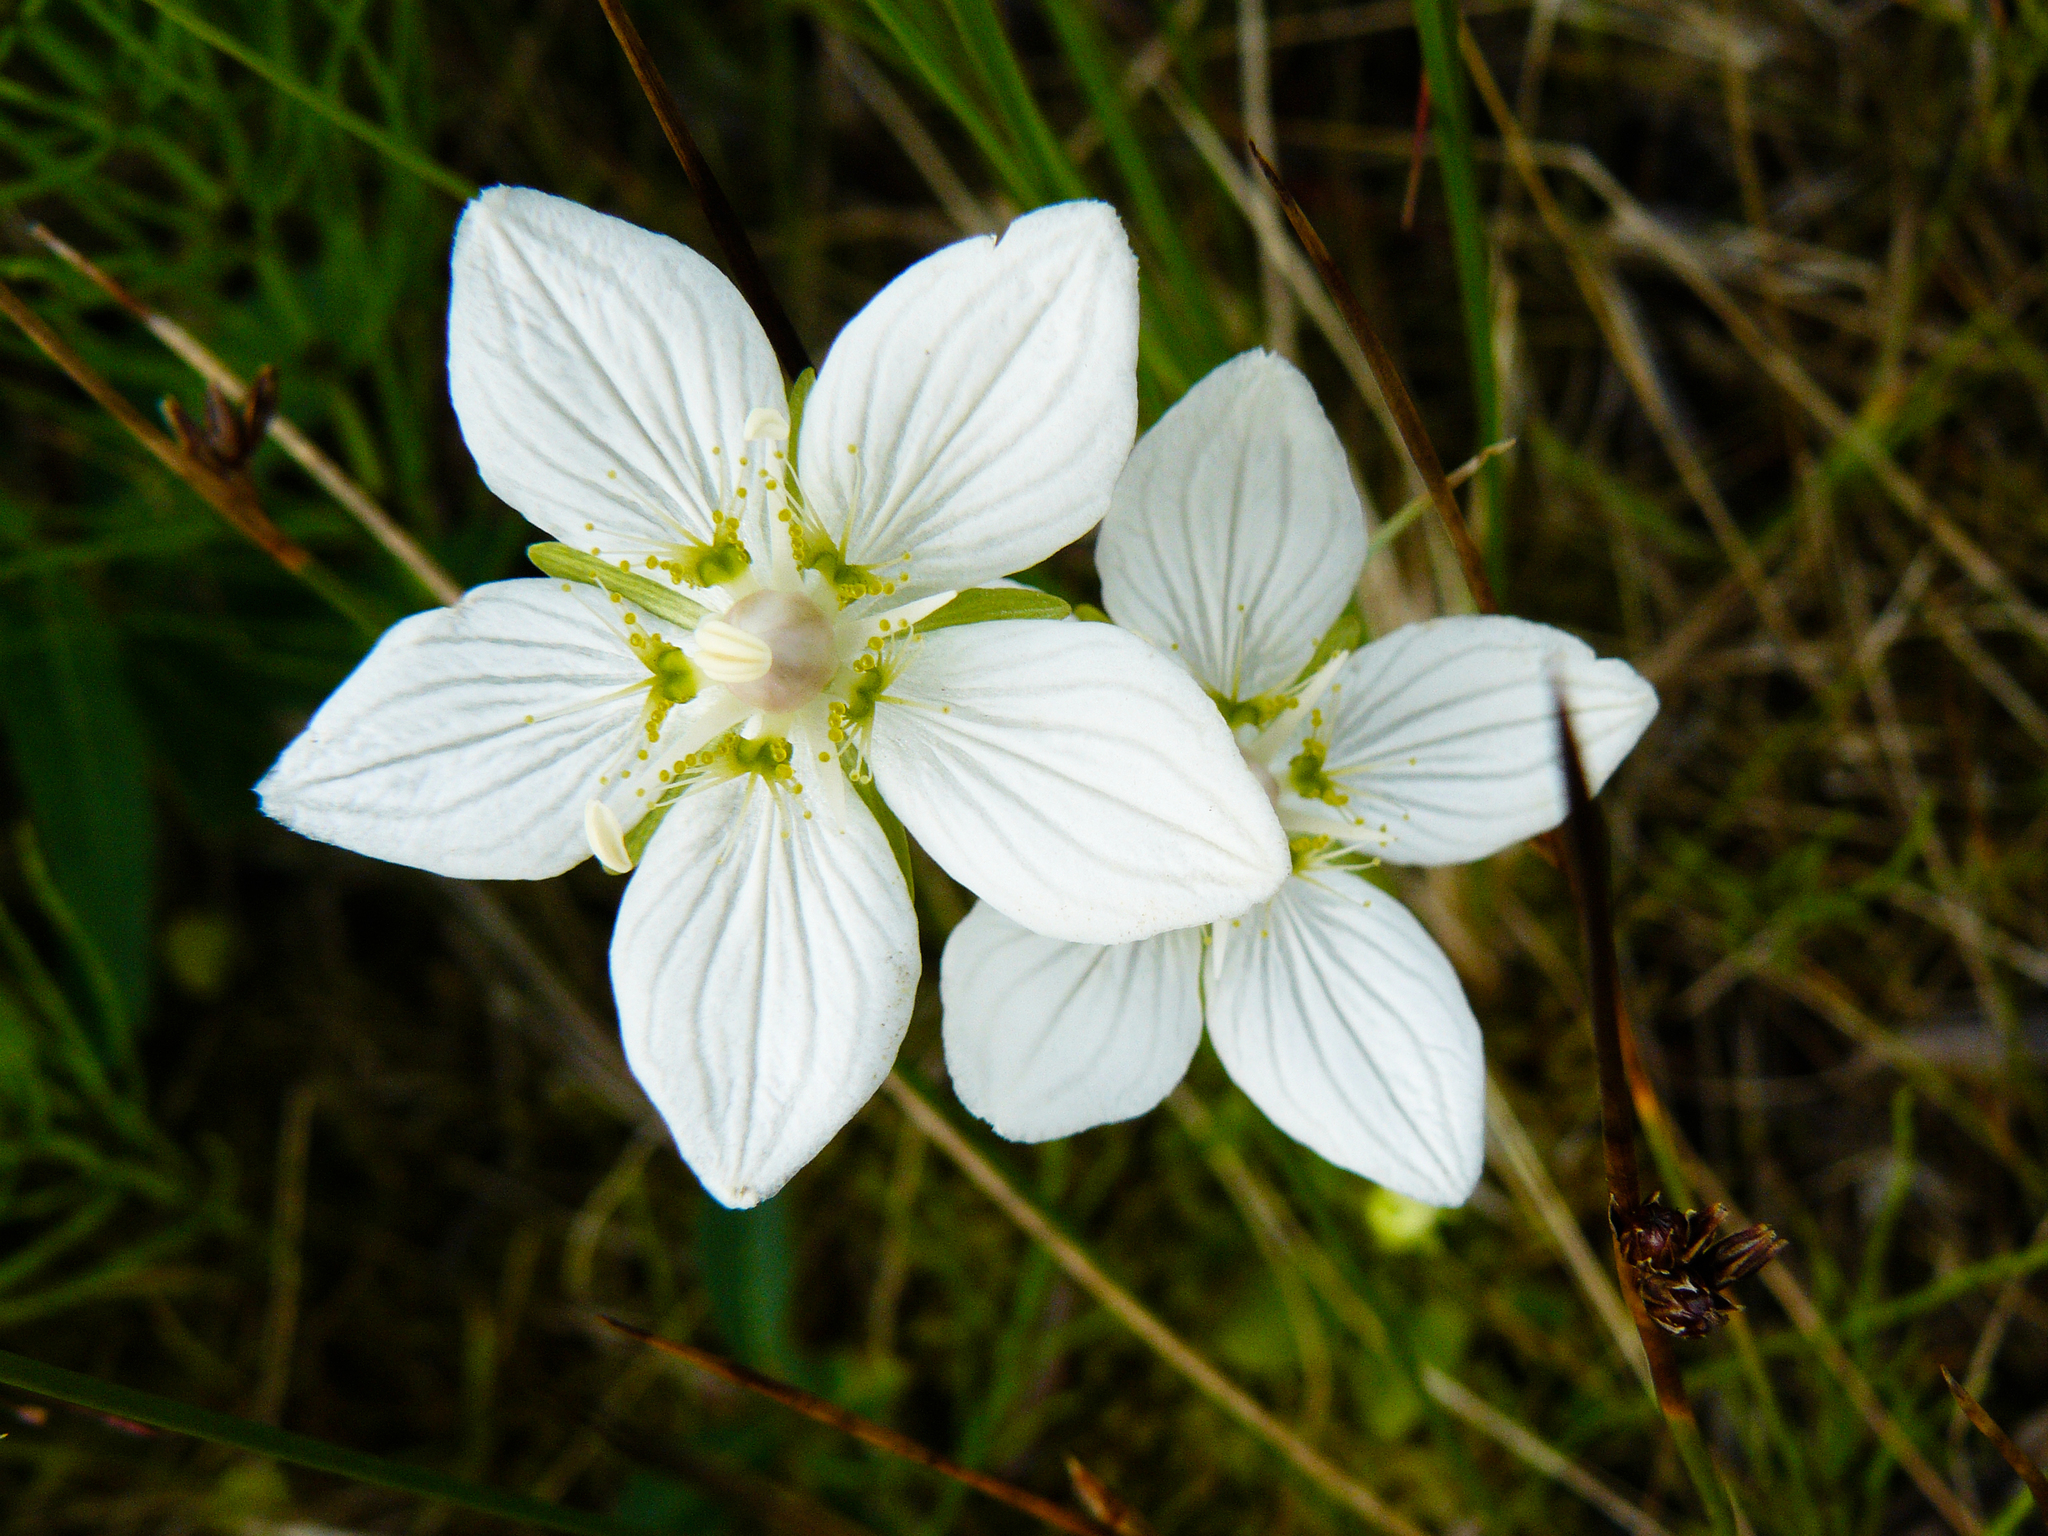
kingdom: Plantae
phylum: Tracheophyta
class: Magnoliopsida
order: Celastrales
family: Parnassiaceae
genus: Parnassia
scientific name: Parnassia palustris
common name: Grass-of-parnassus
